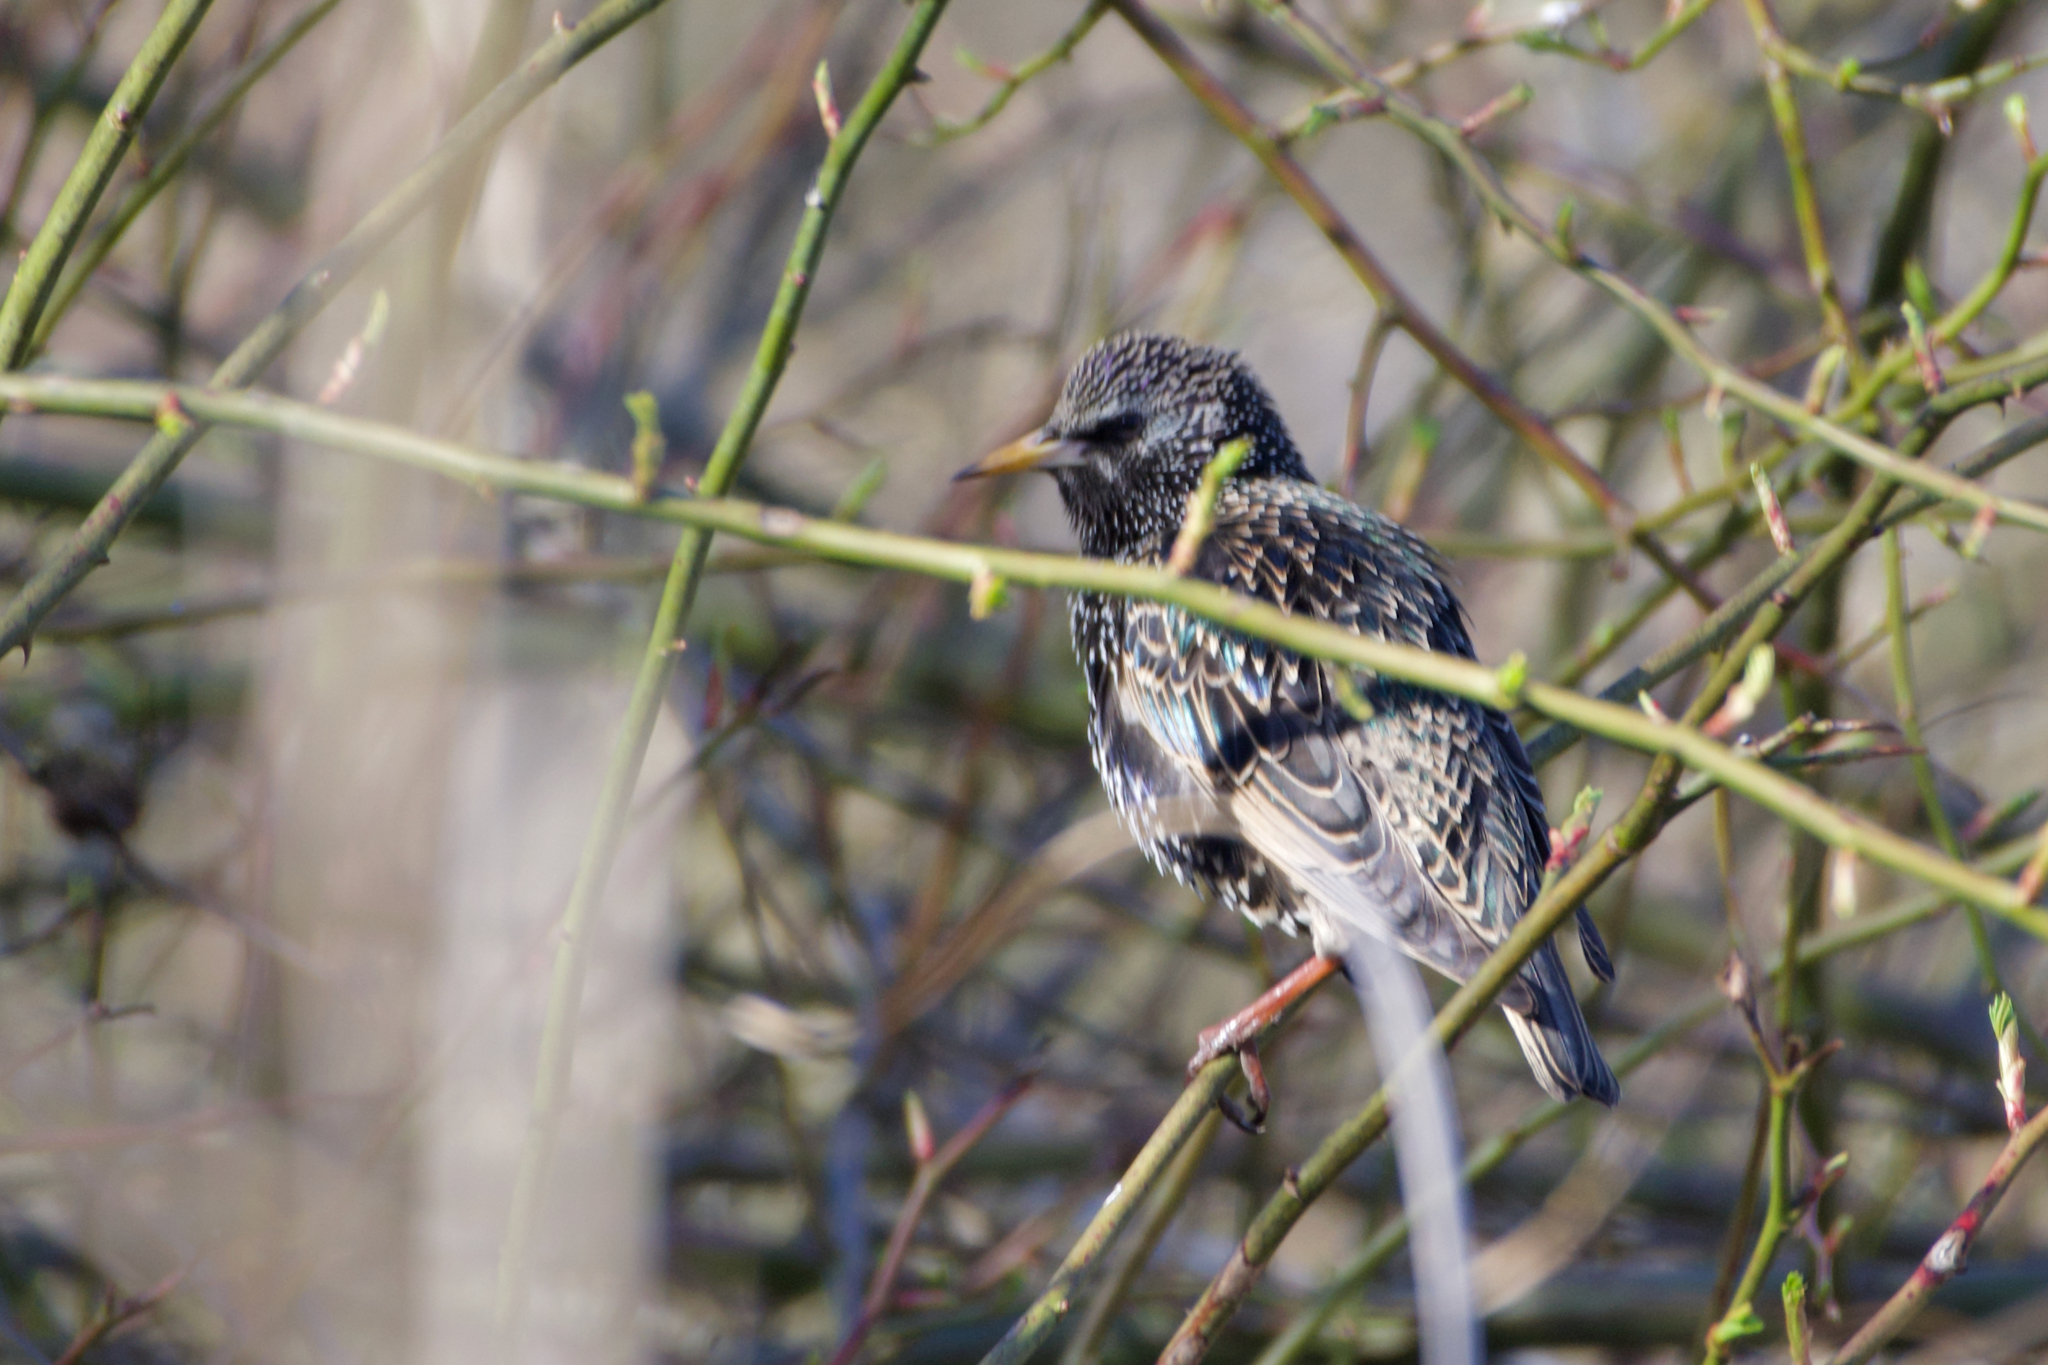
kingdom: Animalia
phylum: Chordata
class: Aves
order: Passeriformes
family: Sturnidae
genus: Sturnus
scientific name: Sturnus vulgaris
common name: Common starling
